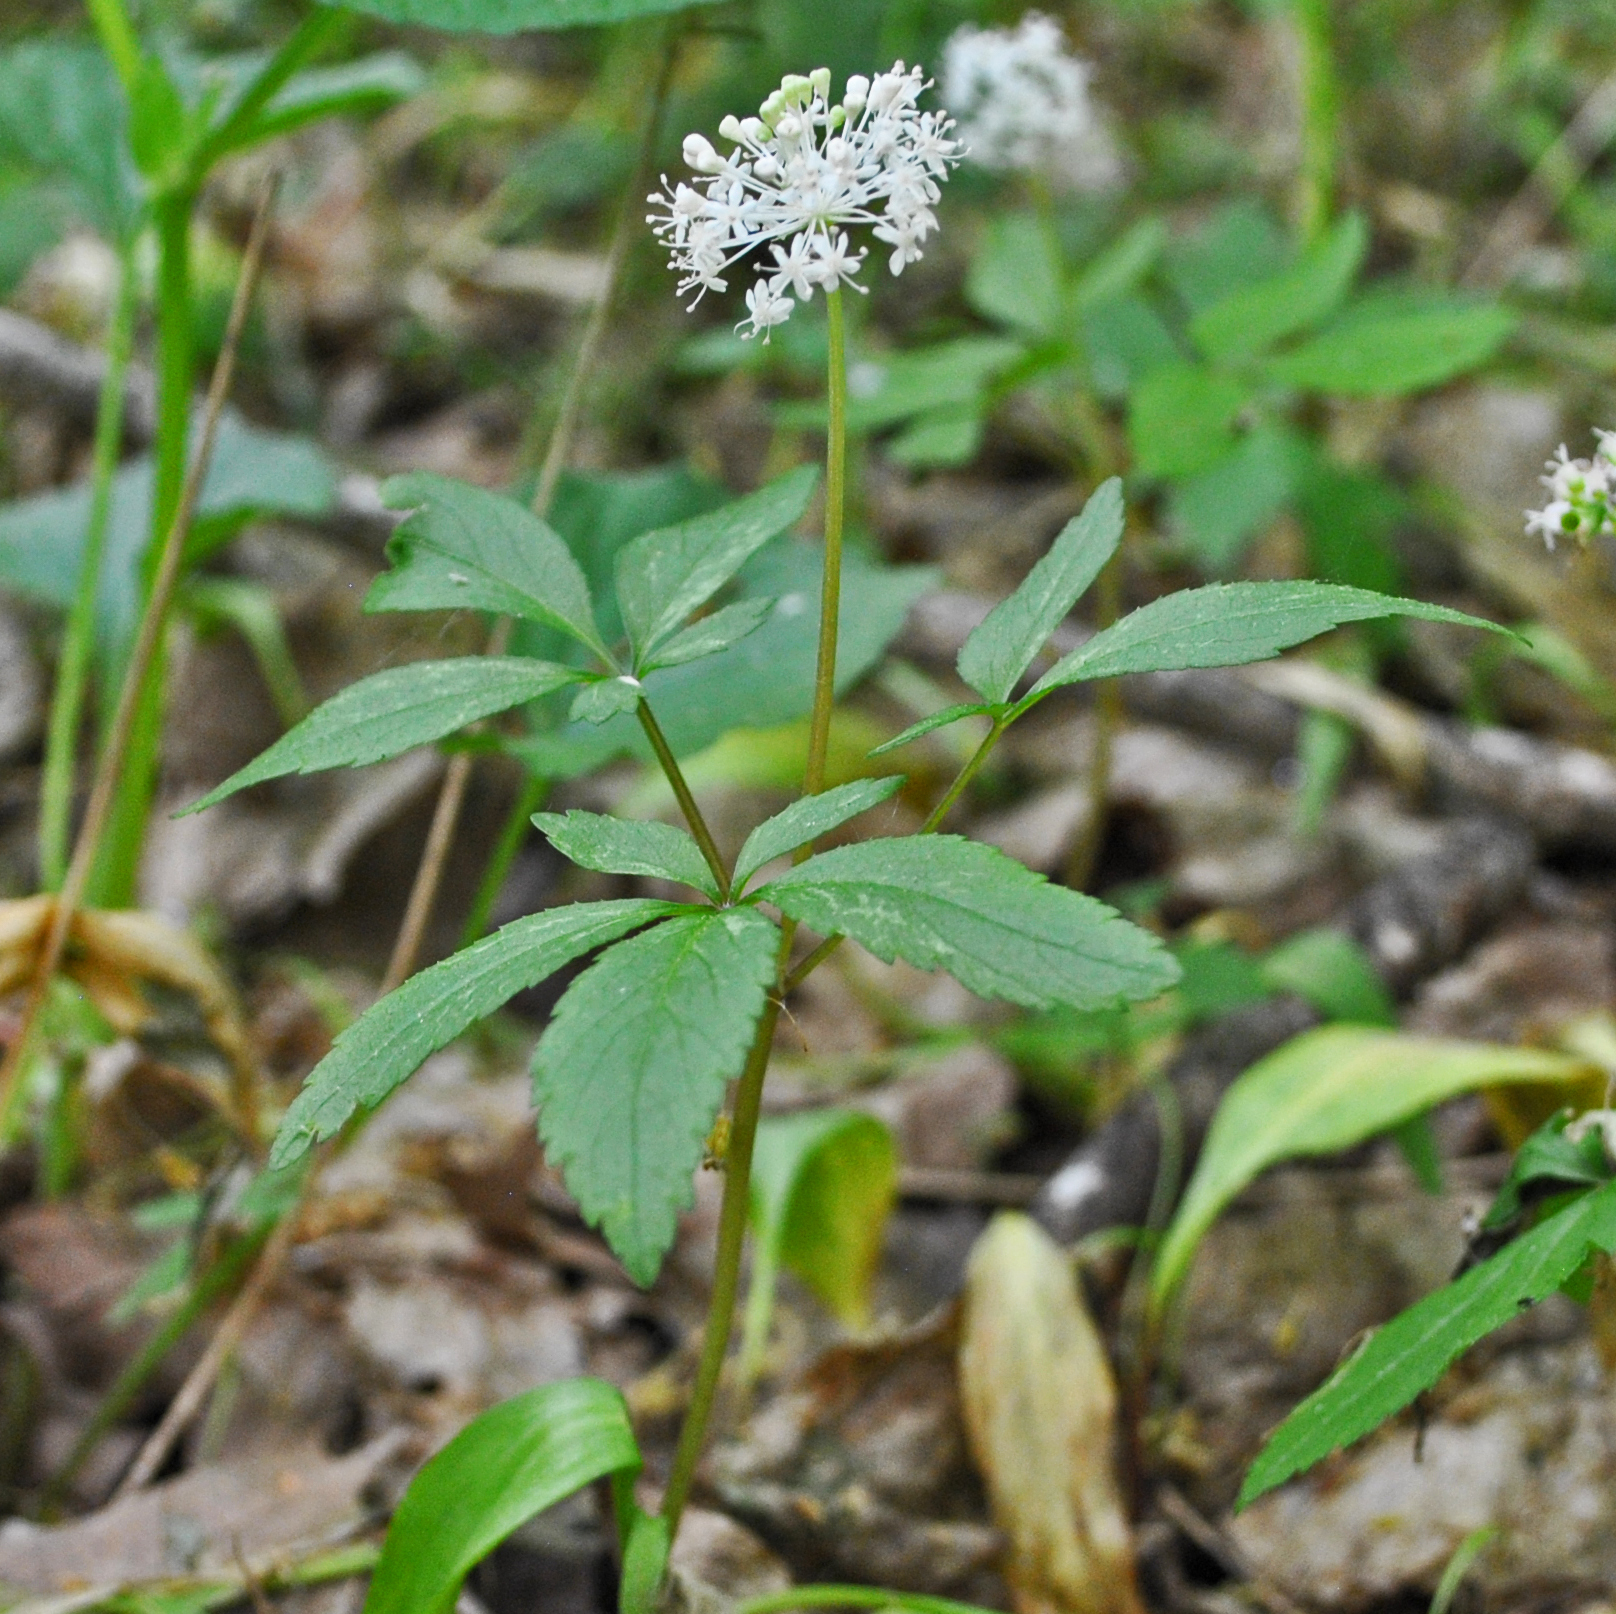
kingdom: Plantae
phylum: Tracheophyta
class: Magnoliopsida
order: Apiales
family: Araliaceae
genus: Panax
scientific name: Panax trifolius
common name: Dwarf ginseng
